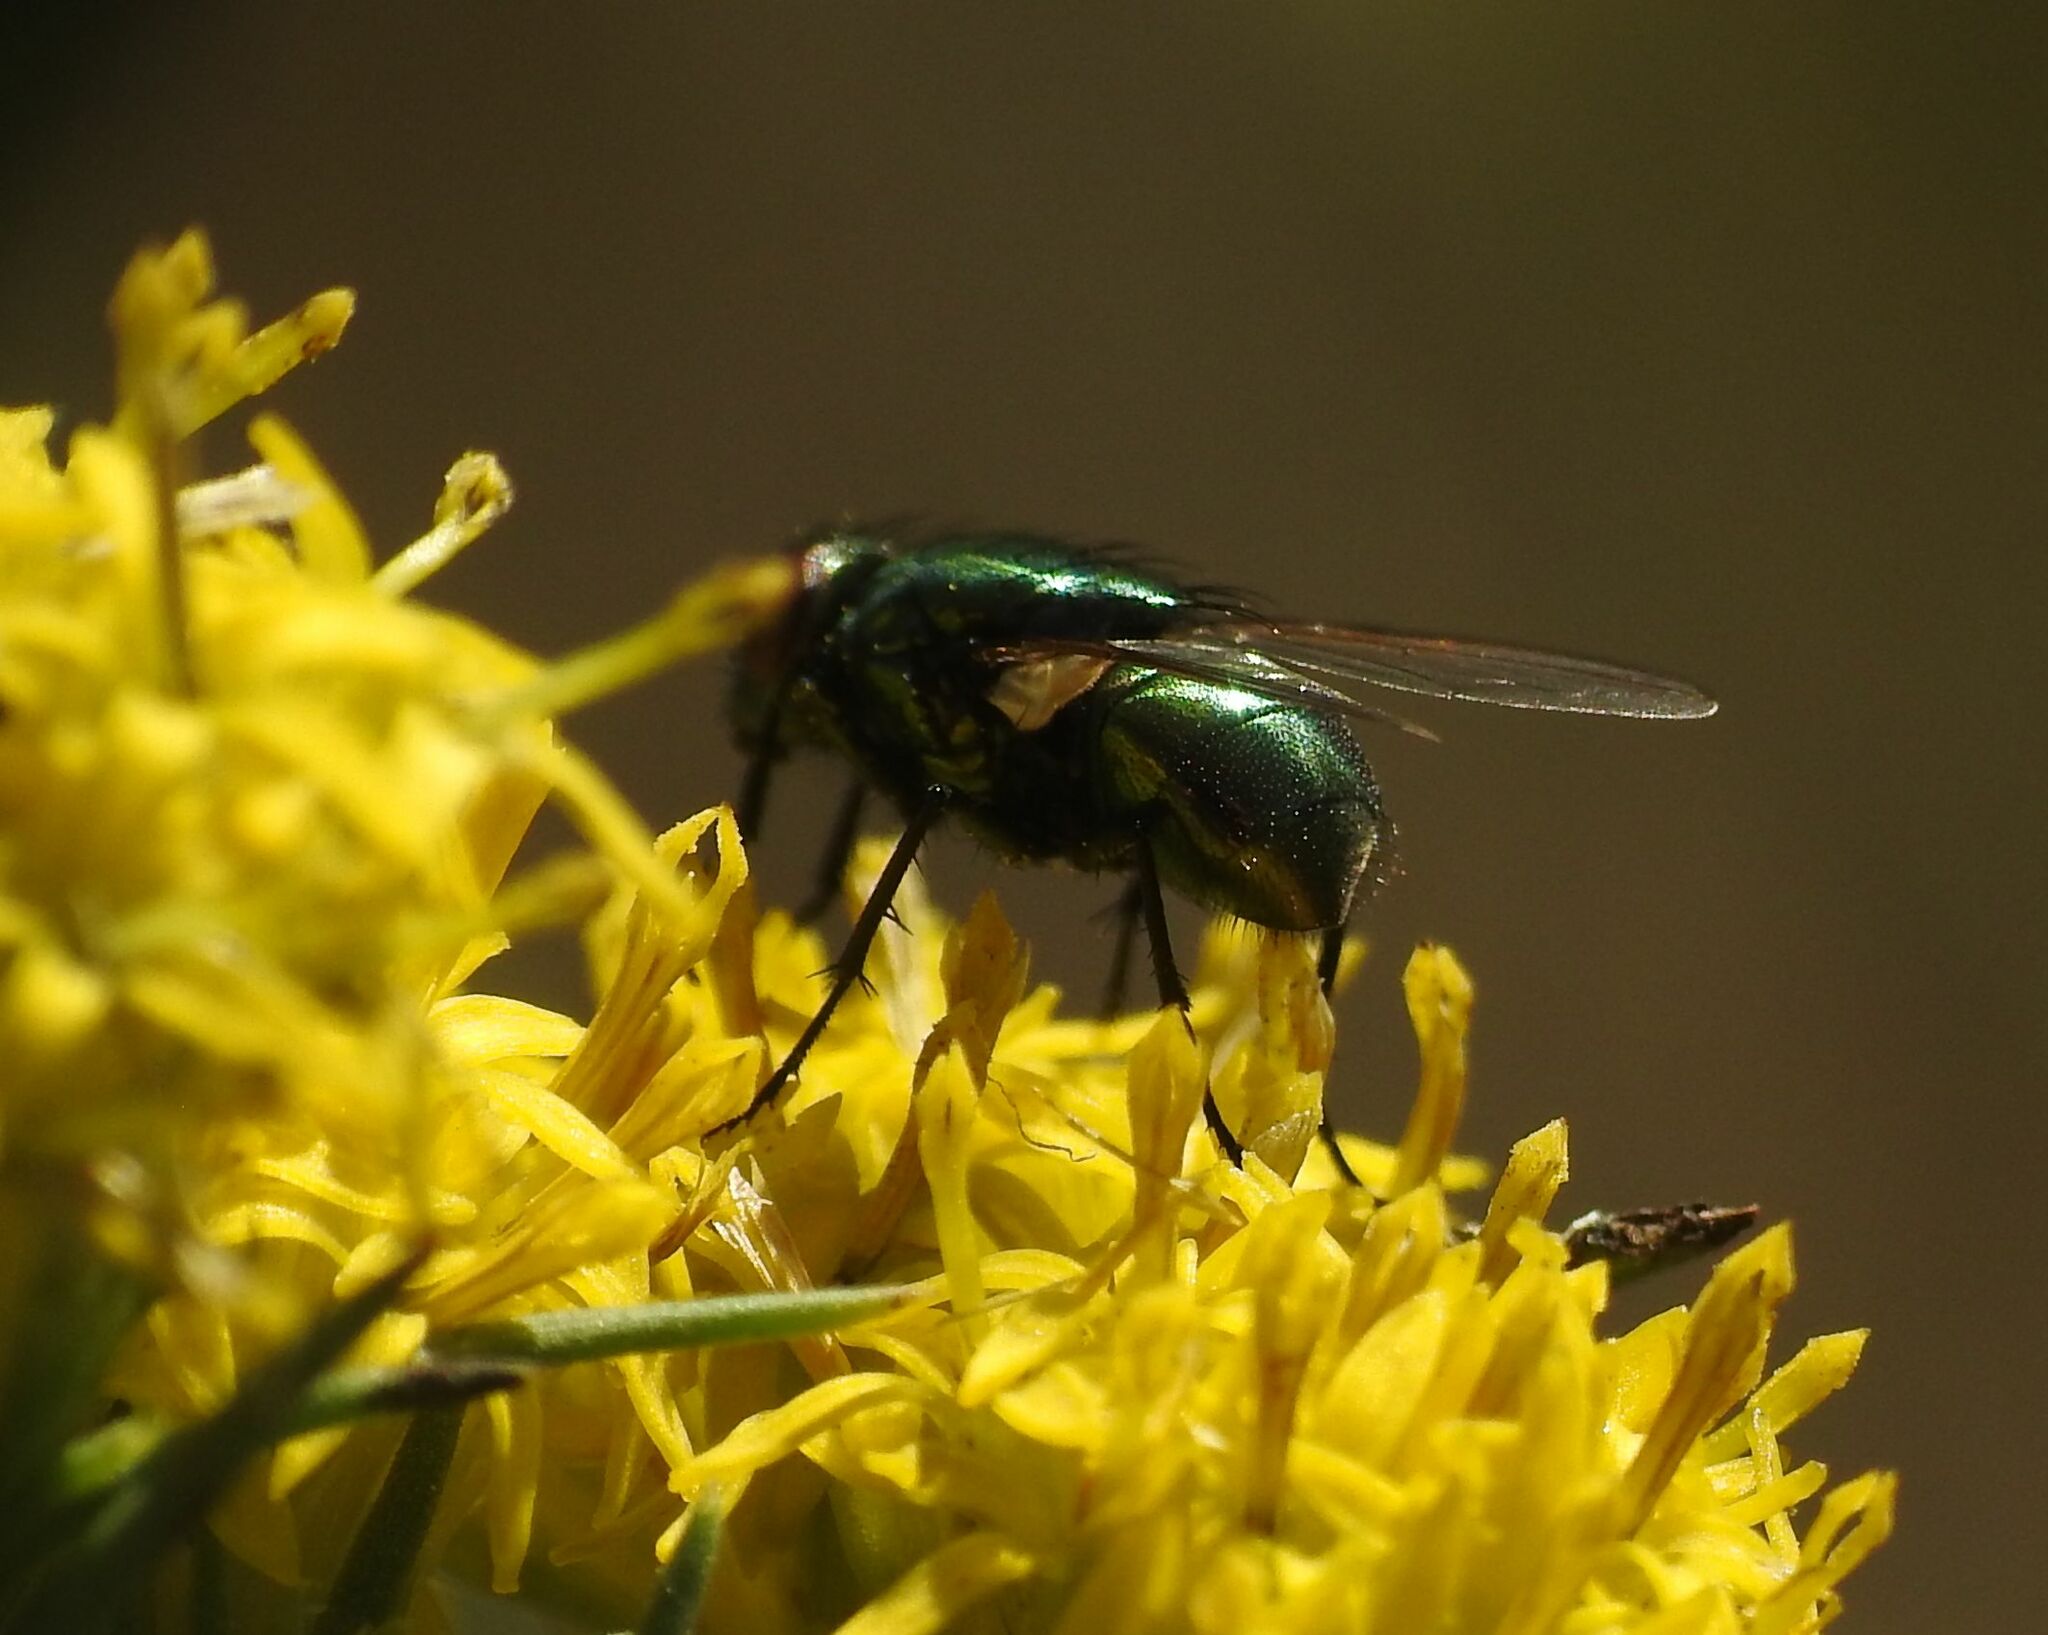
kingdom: Animalia
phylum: Arthropoda
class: Insecta
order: Diptera
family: Muscidae
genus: Neomyia
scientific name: Neomyia cornicina
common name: House fly
